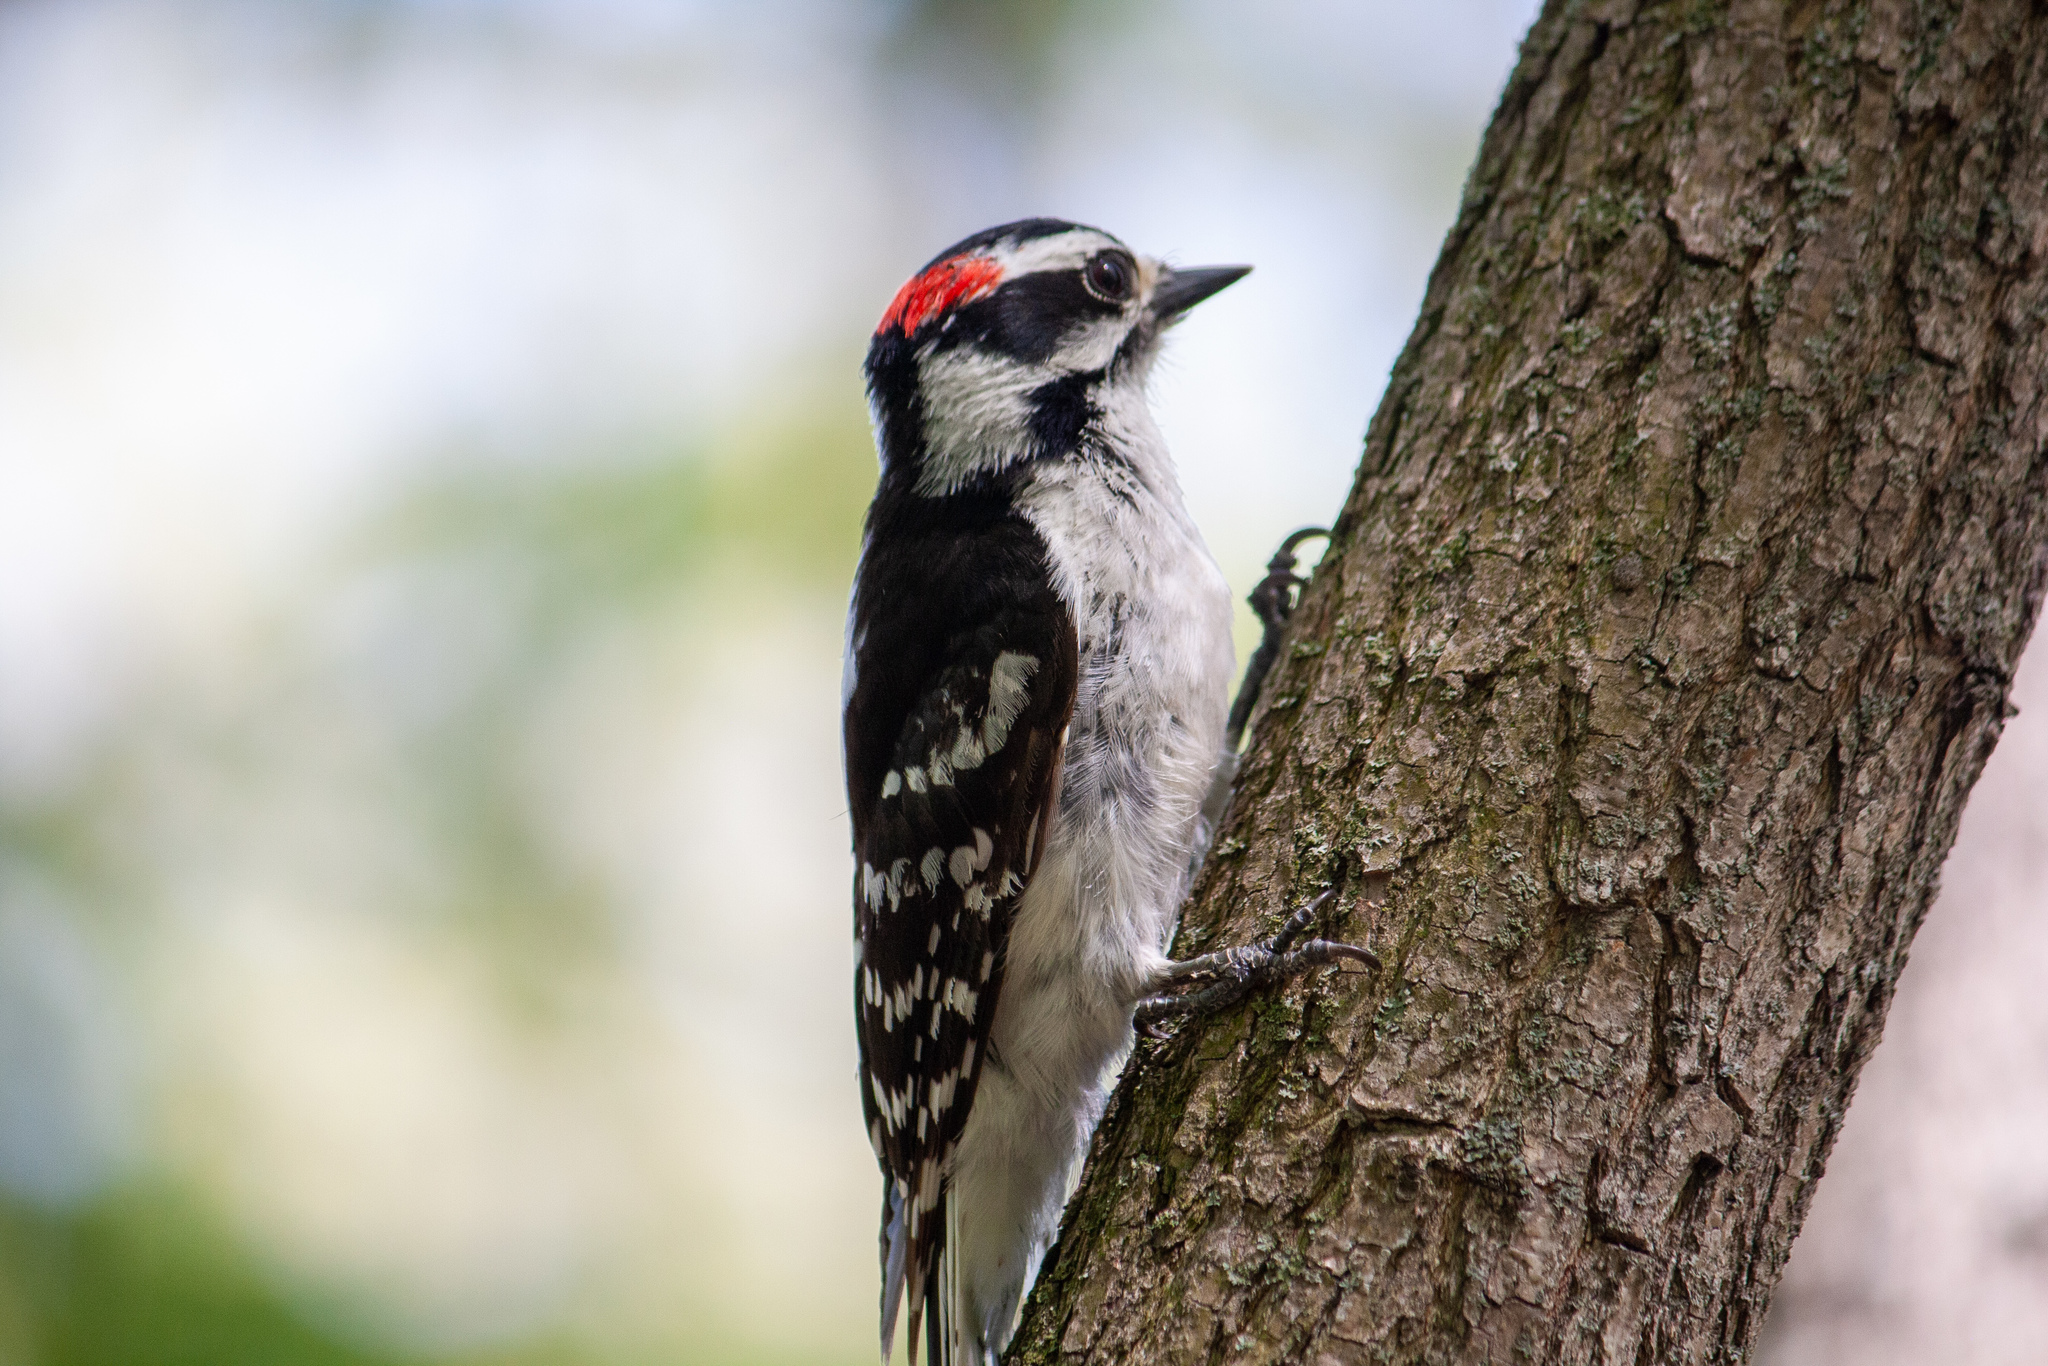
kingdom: Animalia
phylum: Chordata
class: Aves
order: Piciformes
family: Picidae
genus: Dryobates
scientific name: Dryobates pubescens
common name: Downy woodpecker
